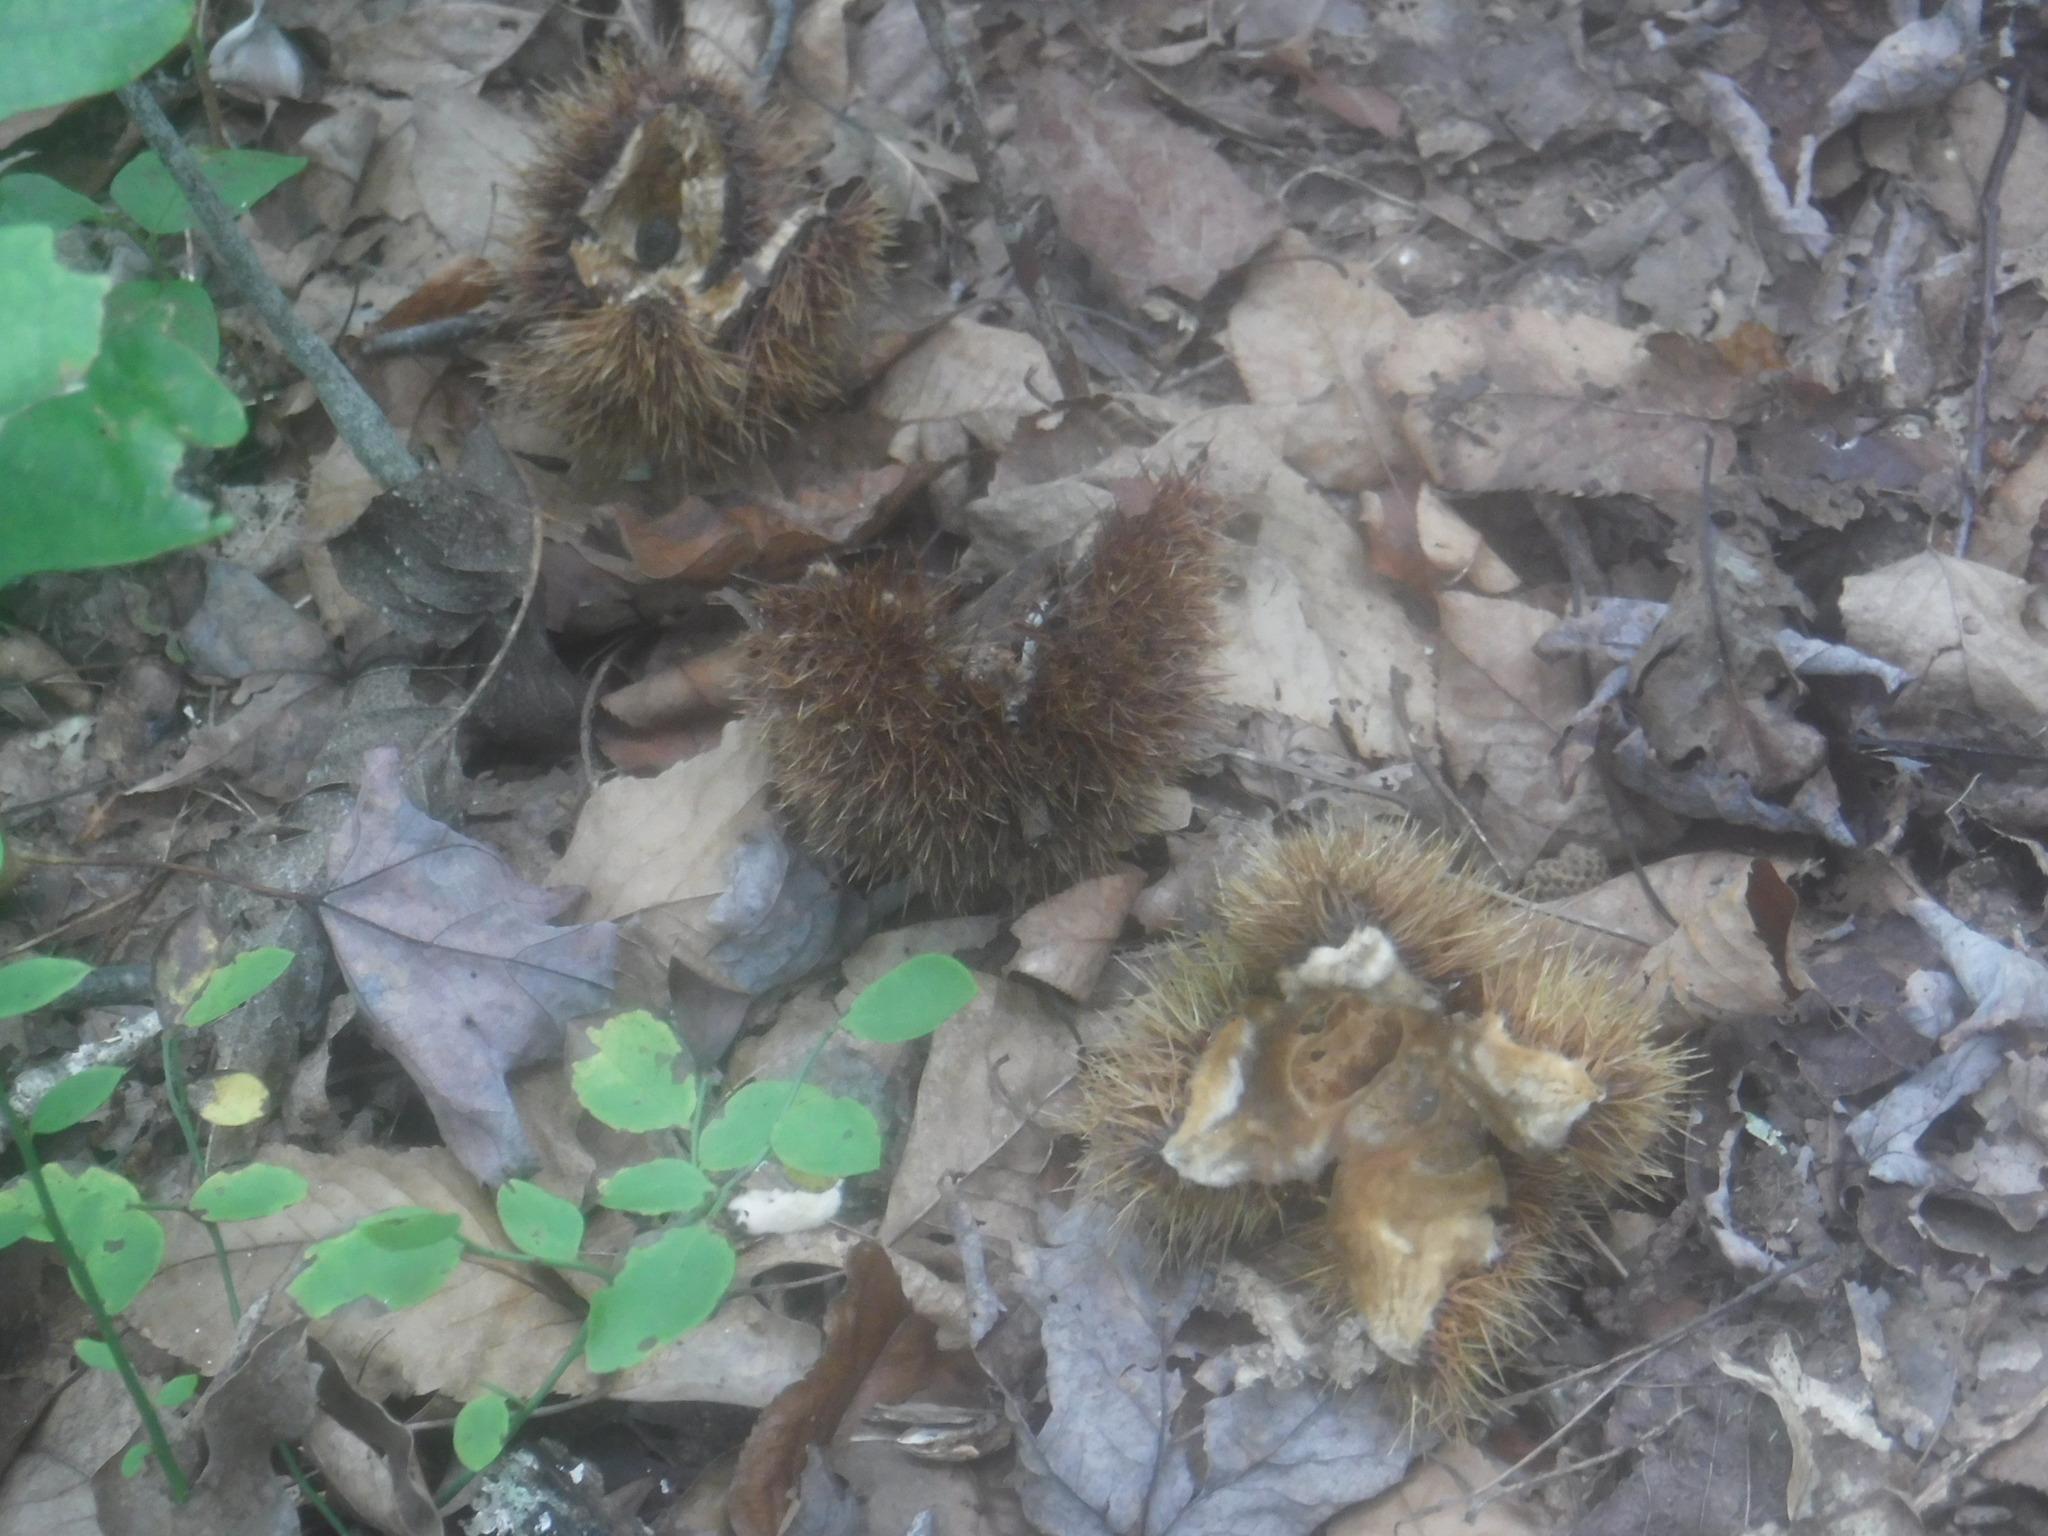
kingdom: Plantae
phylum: Tracheophyta
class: Magnoliopsida
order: Fagales
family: Fagaceae
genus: Castanea
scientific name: Castanea dentata
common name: American chestnut
